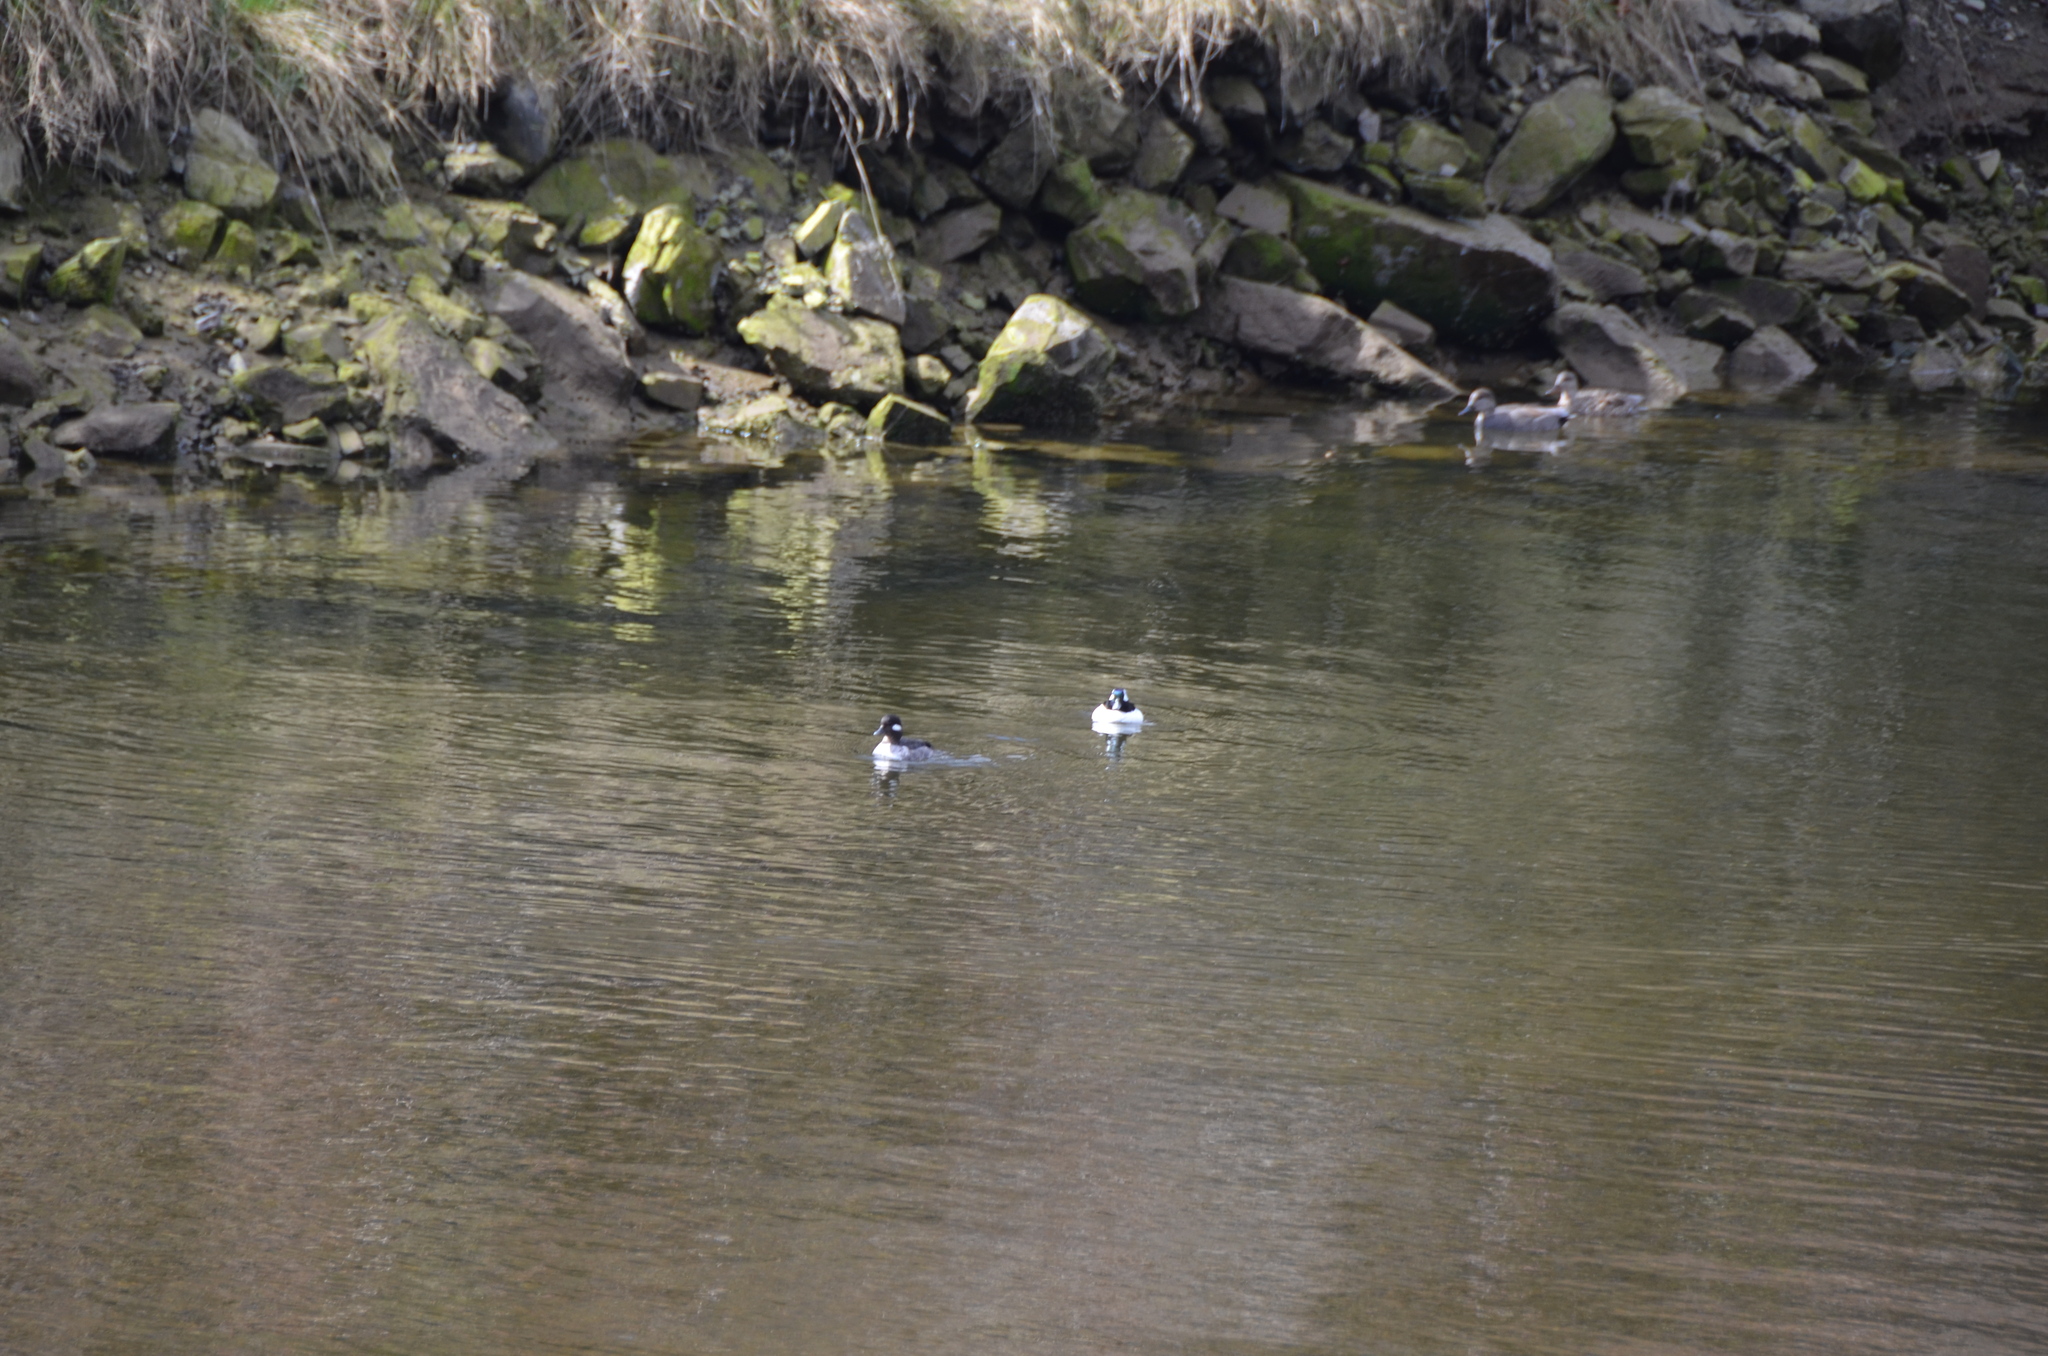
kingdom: Animalia
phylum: Chordata
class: Aves
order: Anseriformes
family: Anatidae
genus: Bucephala
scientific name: Bucephala albeola
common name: Bufflehead
